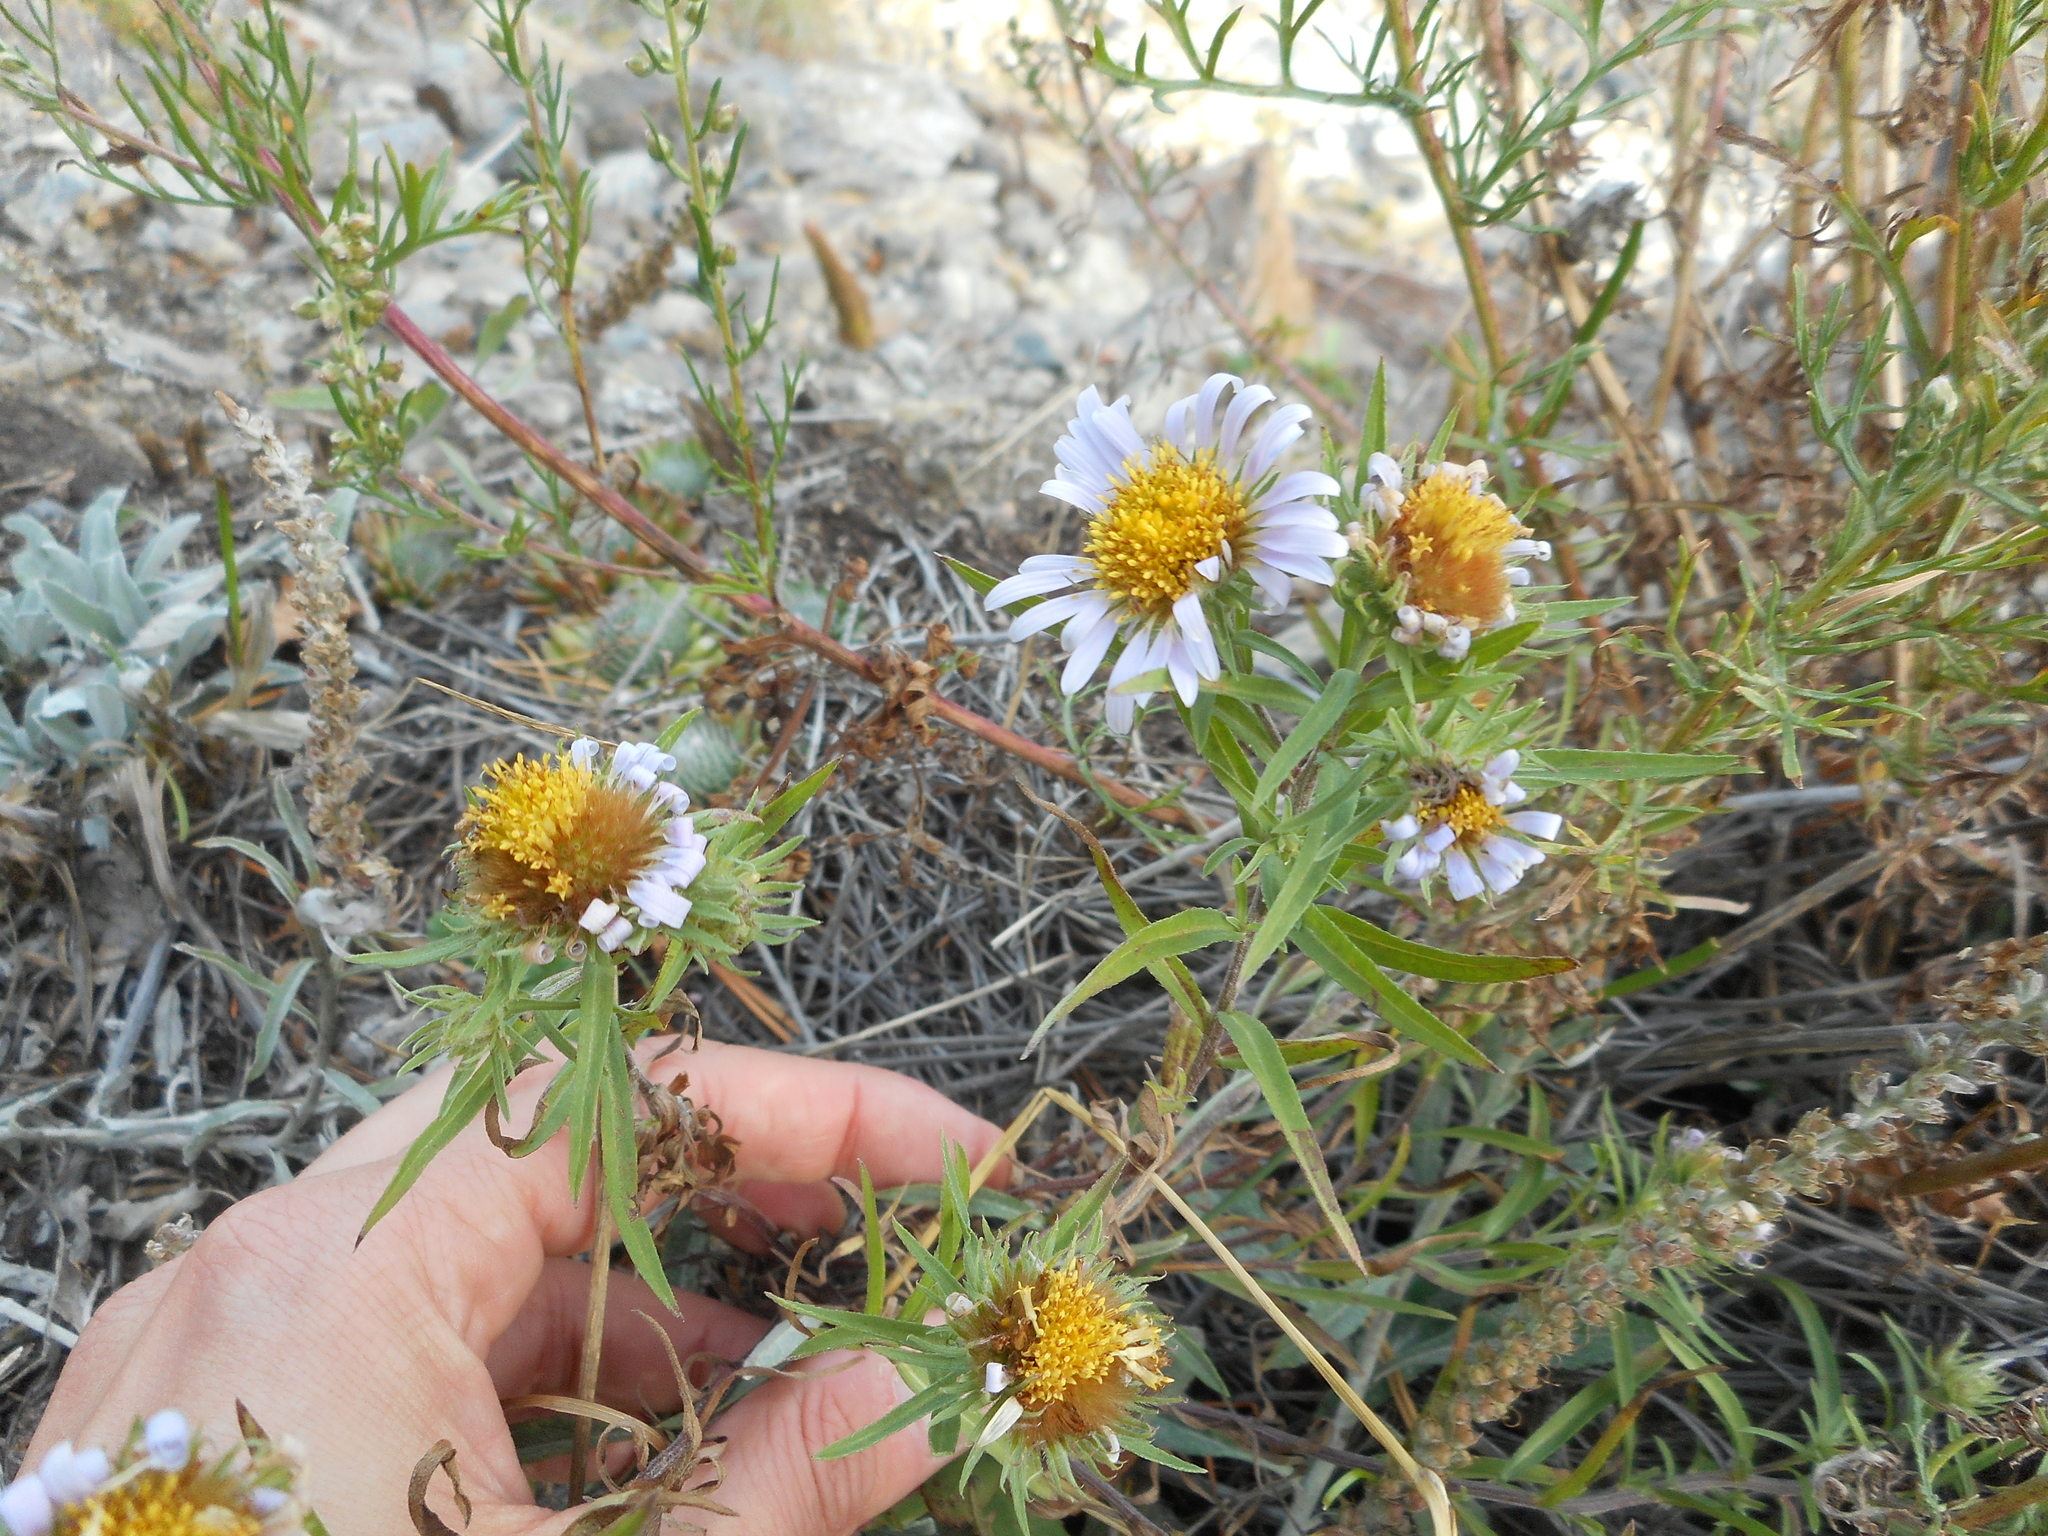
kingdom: Plantae
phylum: Tracheophyta
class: Magnoliopsida
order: Asterales
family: Asteraceae
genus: Heteropappus
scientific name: Heteropappus altaicus
